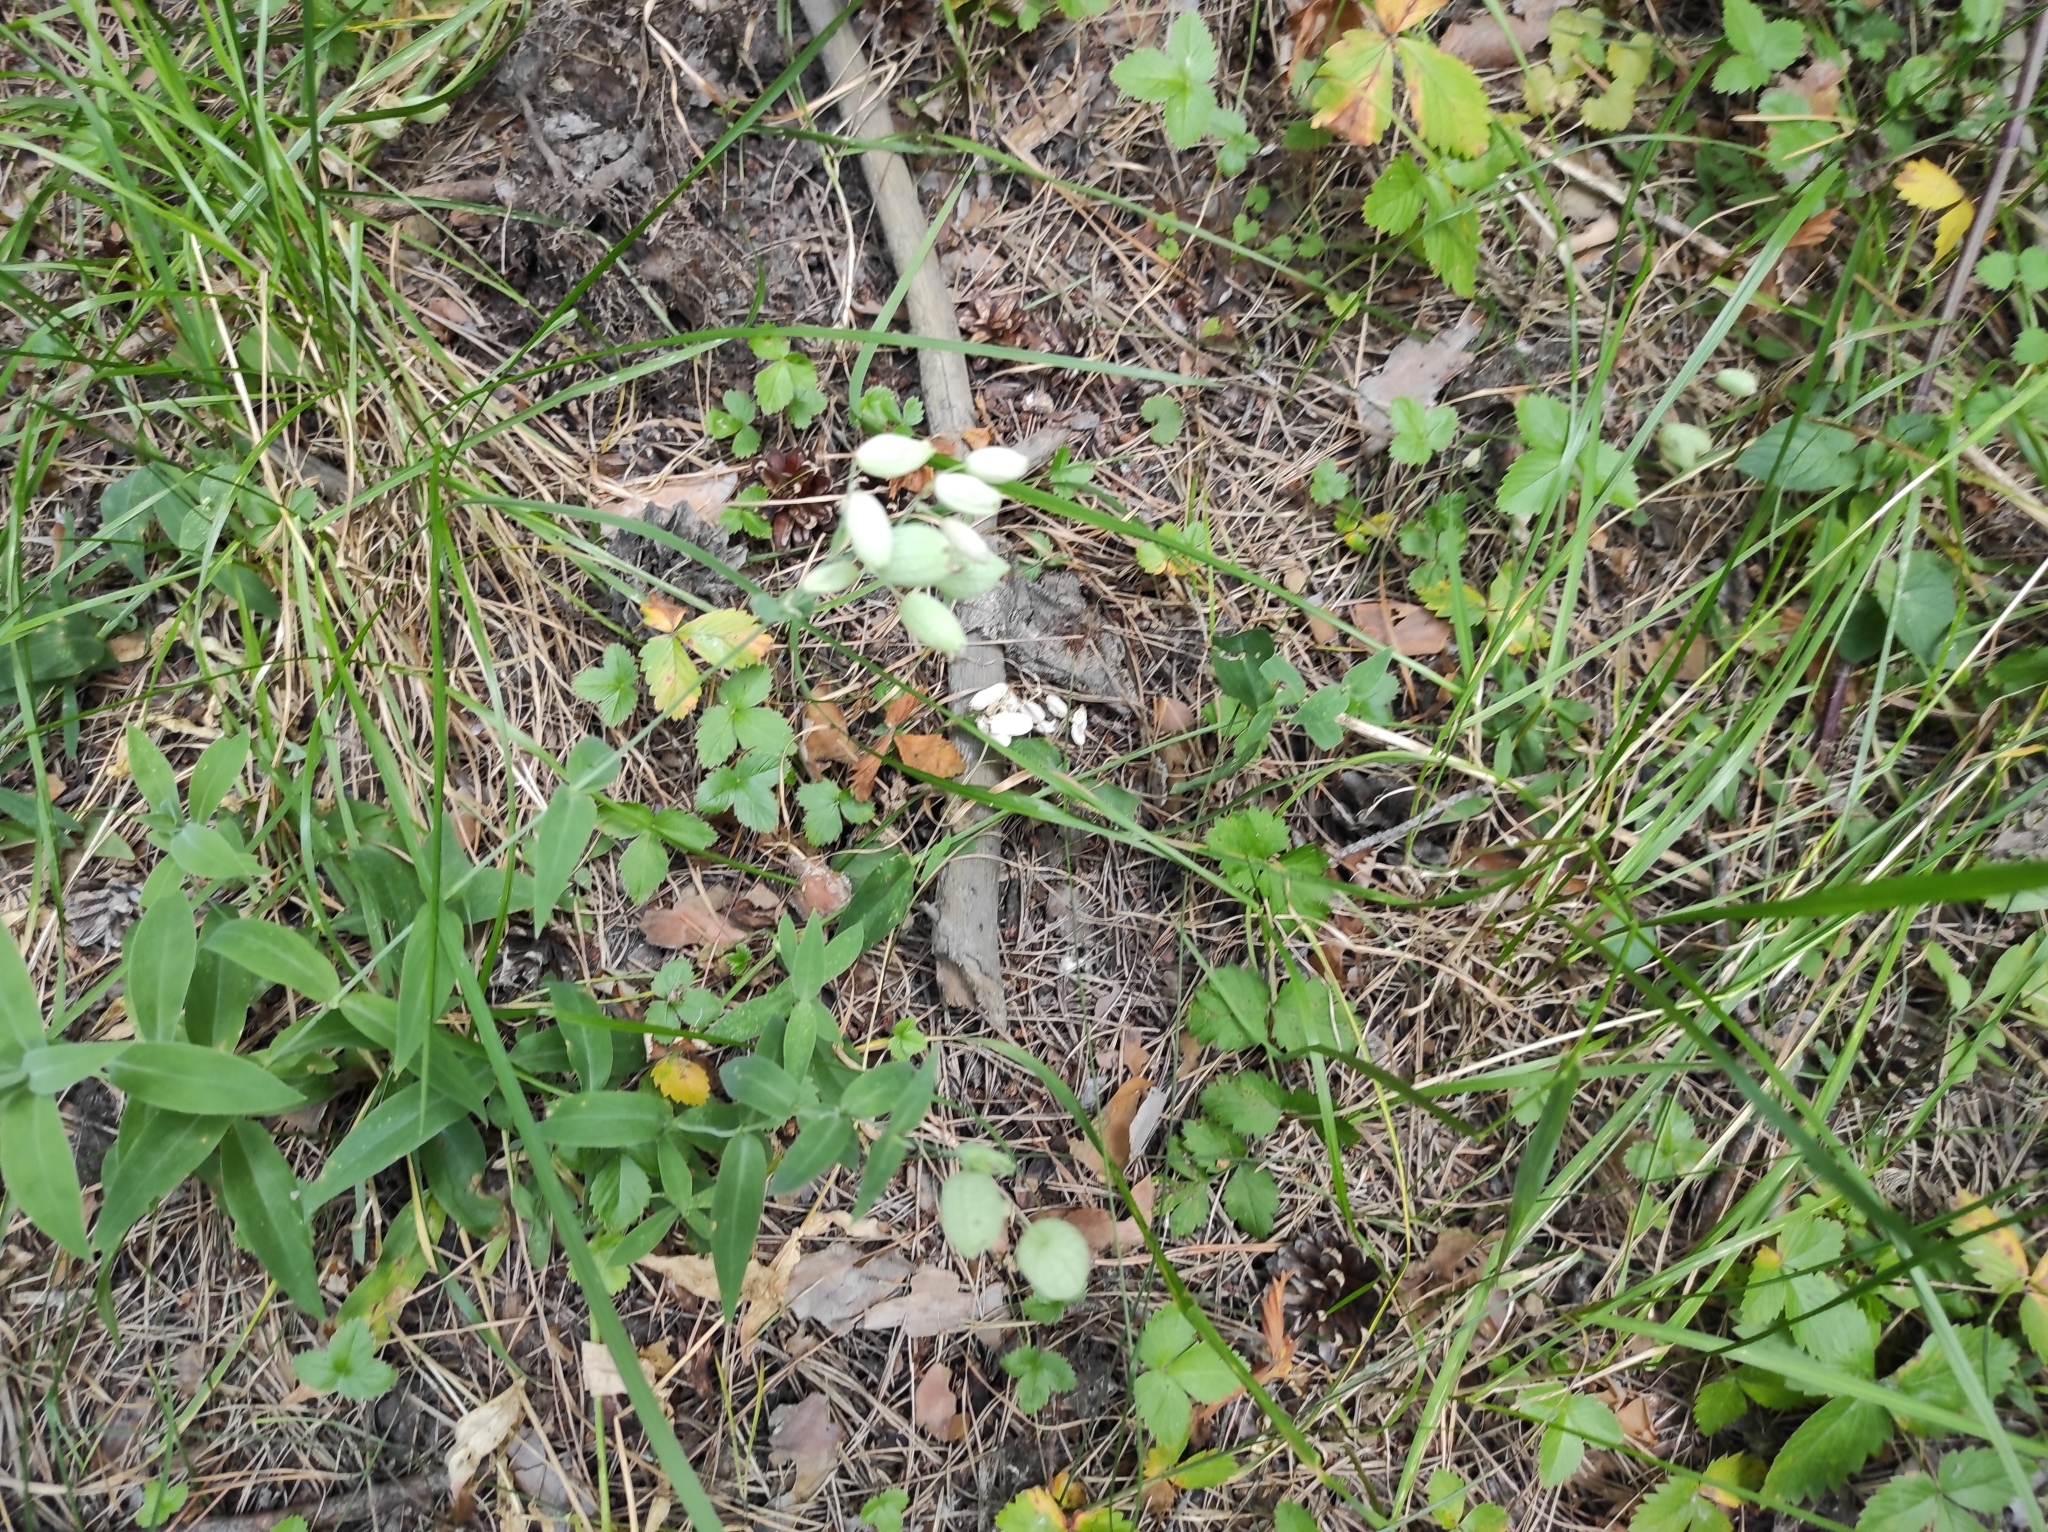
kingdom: Plantae
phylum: Tracheophyta
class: Magnoliopsida
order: Caryophyllales
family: Caryophyllaceae
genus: Silene
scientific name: Silene vulgaris
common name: Bladder campion
